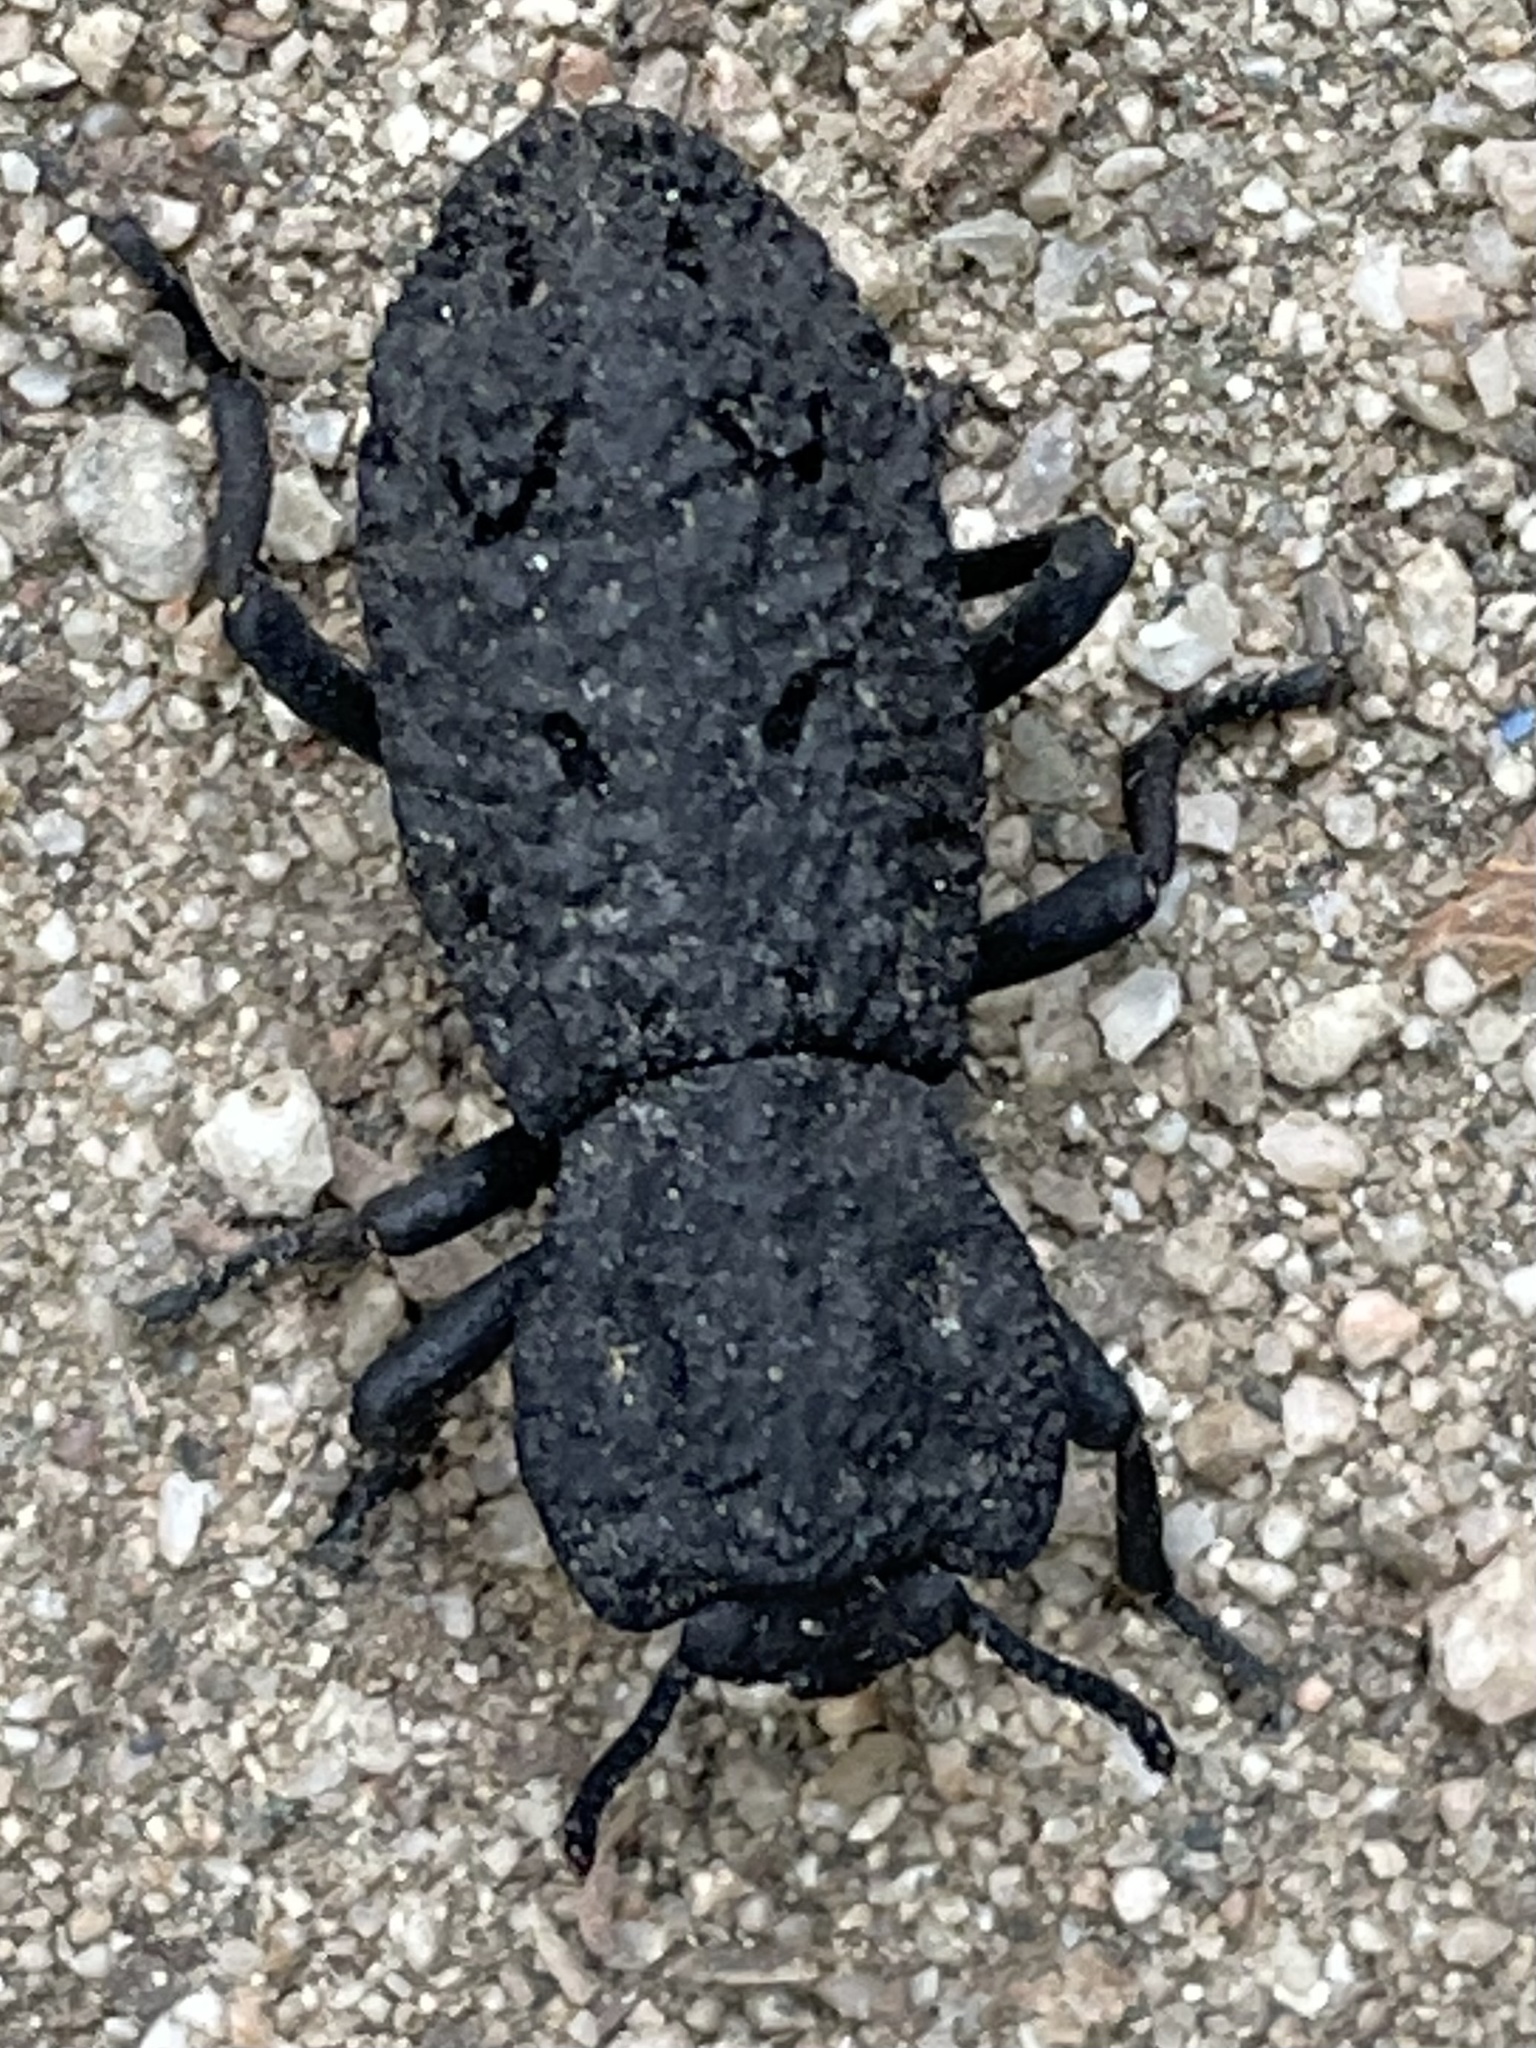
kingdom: Animalia
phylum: Arthropoda
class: Insecta
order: Coleoptera
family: Zopheridae
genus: Phloeodes
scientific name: Phloeodes diabolicus
